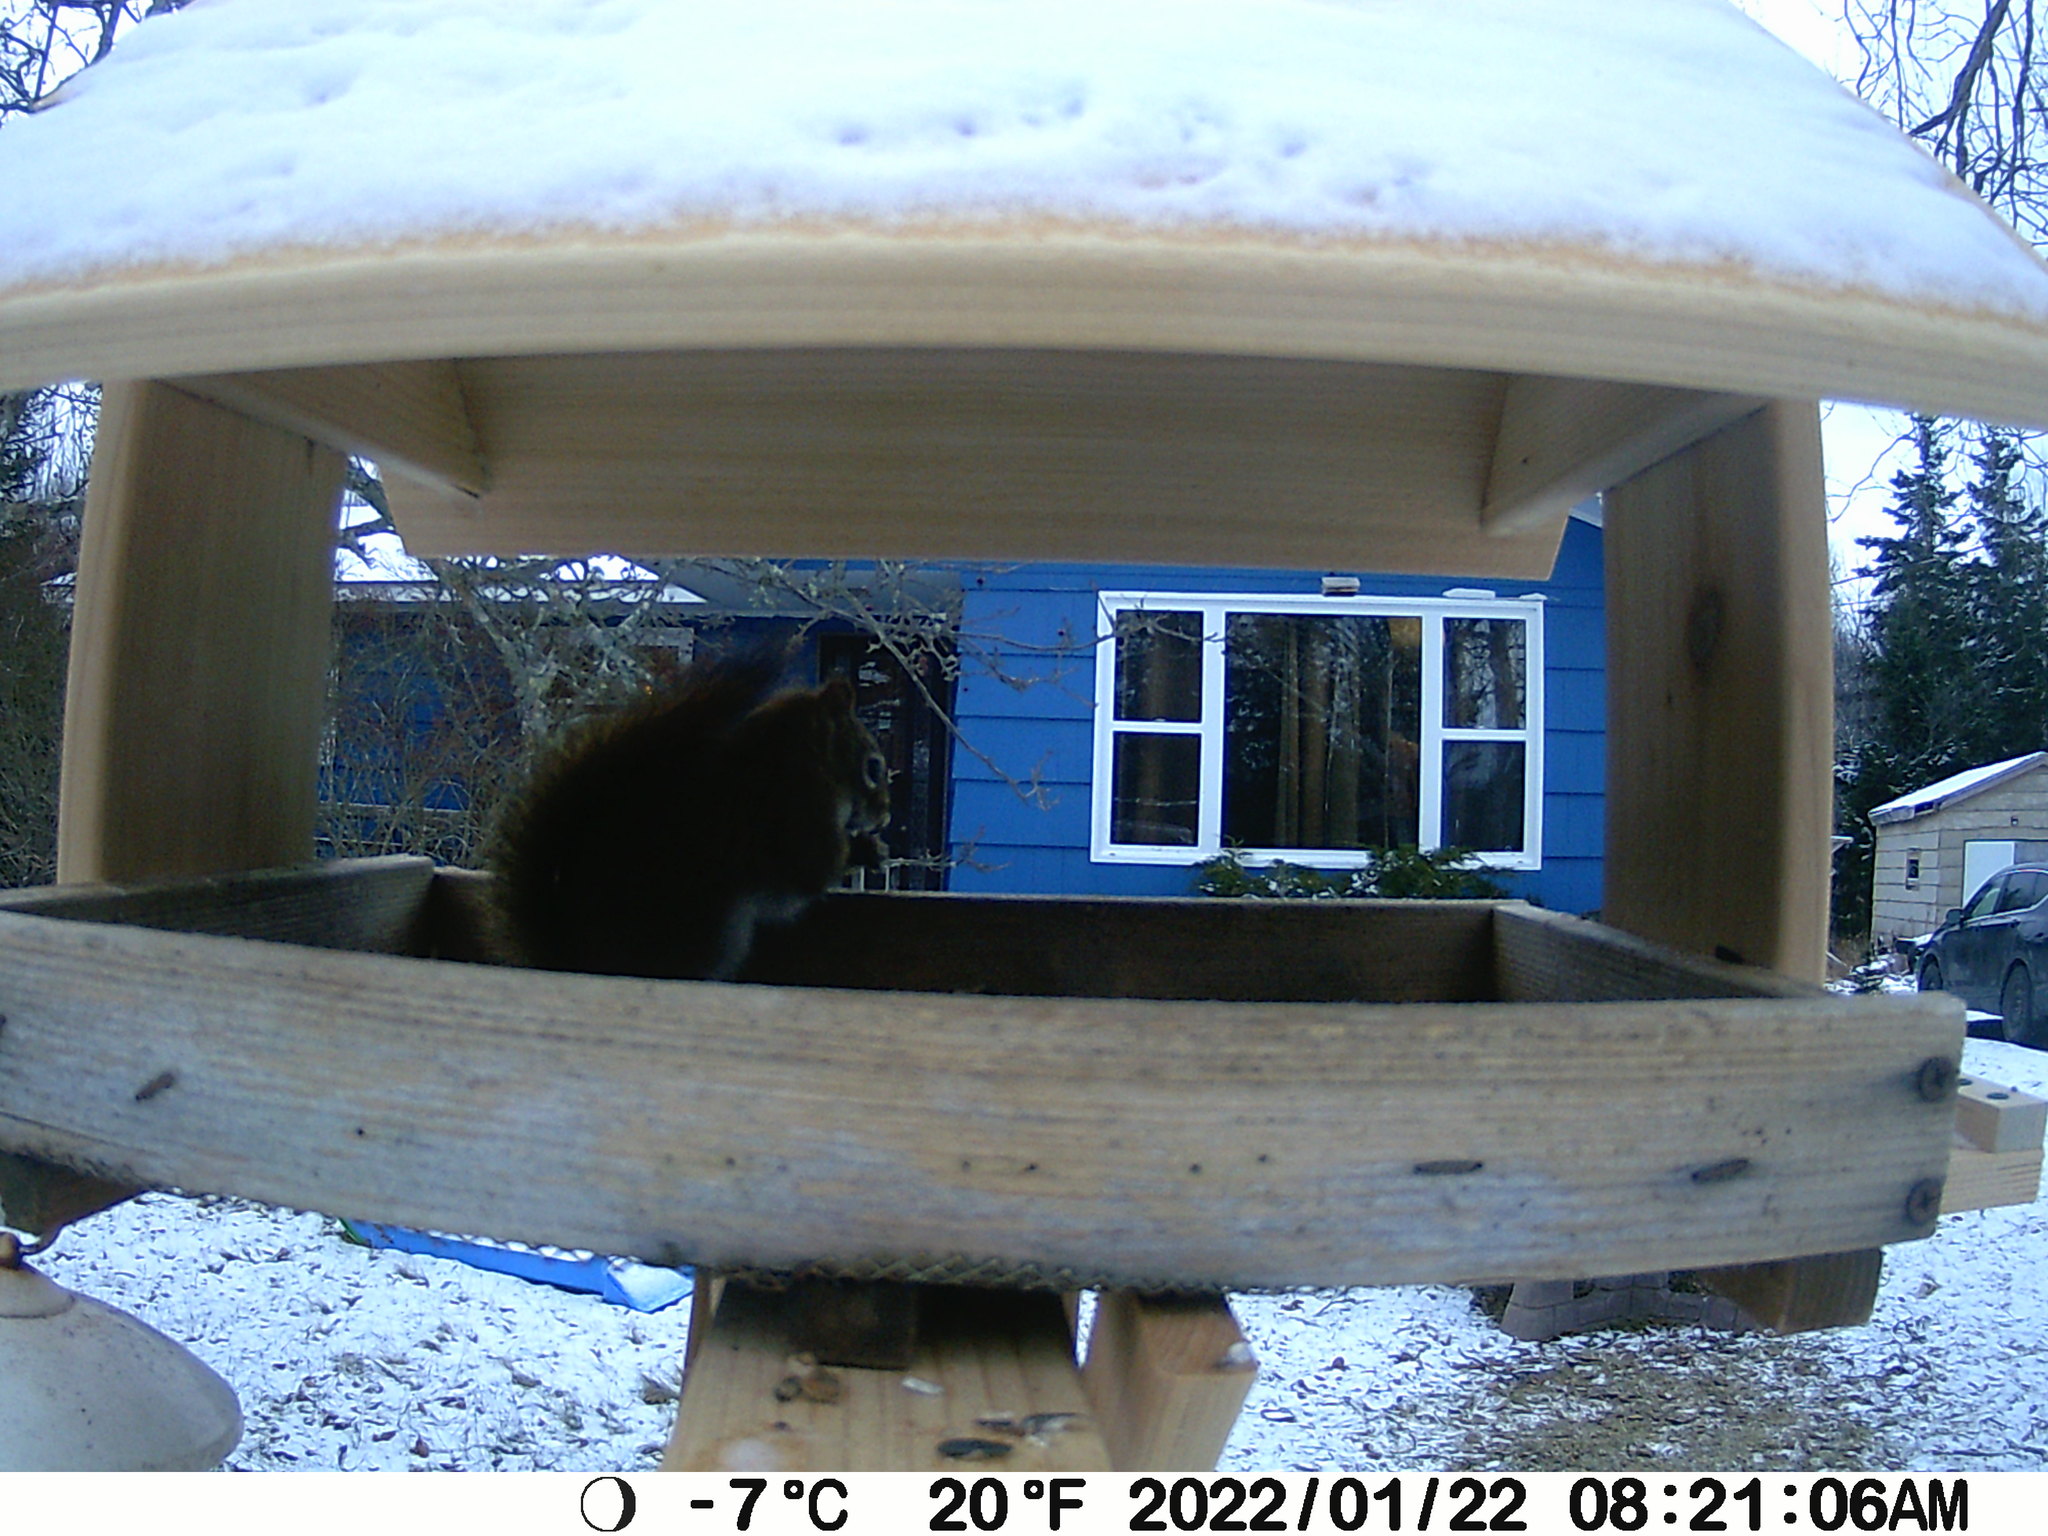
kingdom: Animalia
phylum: Chordata
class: Mammalia
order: Rodentia
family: Sciuridae
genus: Tamiasciurus
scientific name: Tamiasciurus hudsonicus
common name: Red squirrel
